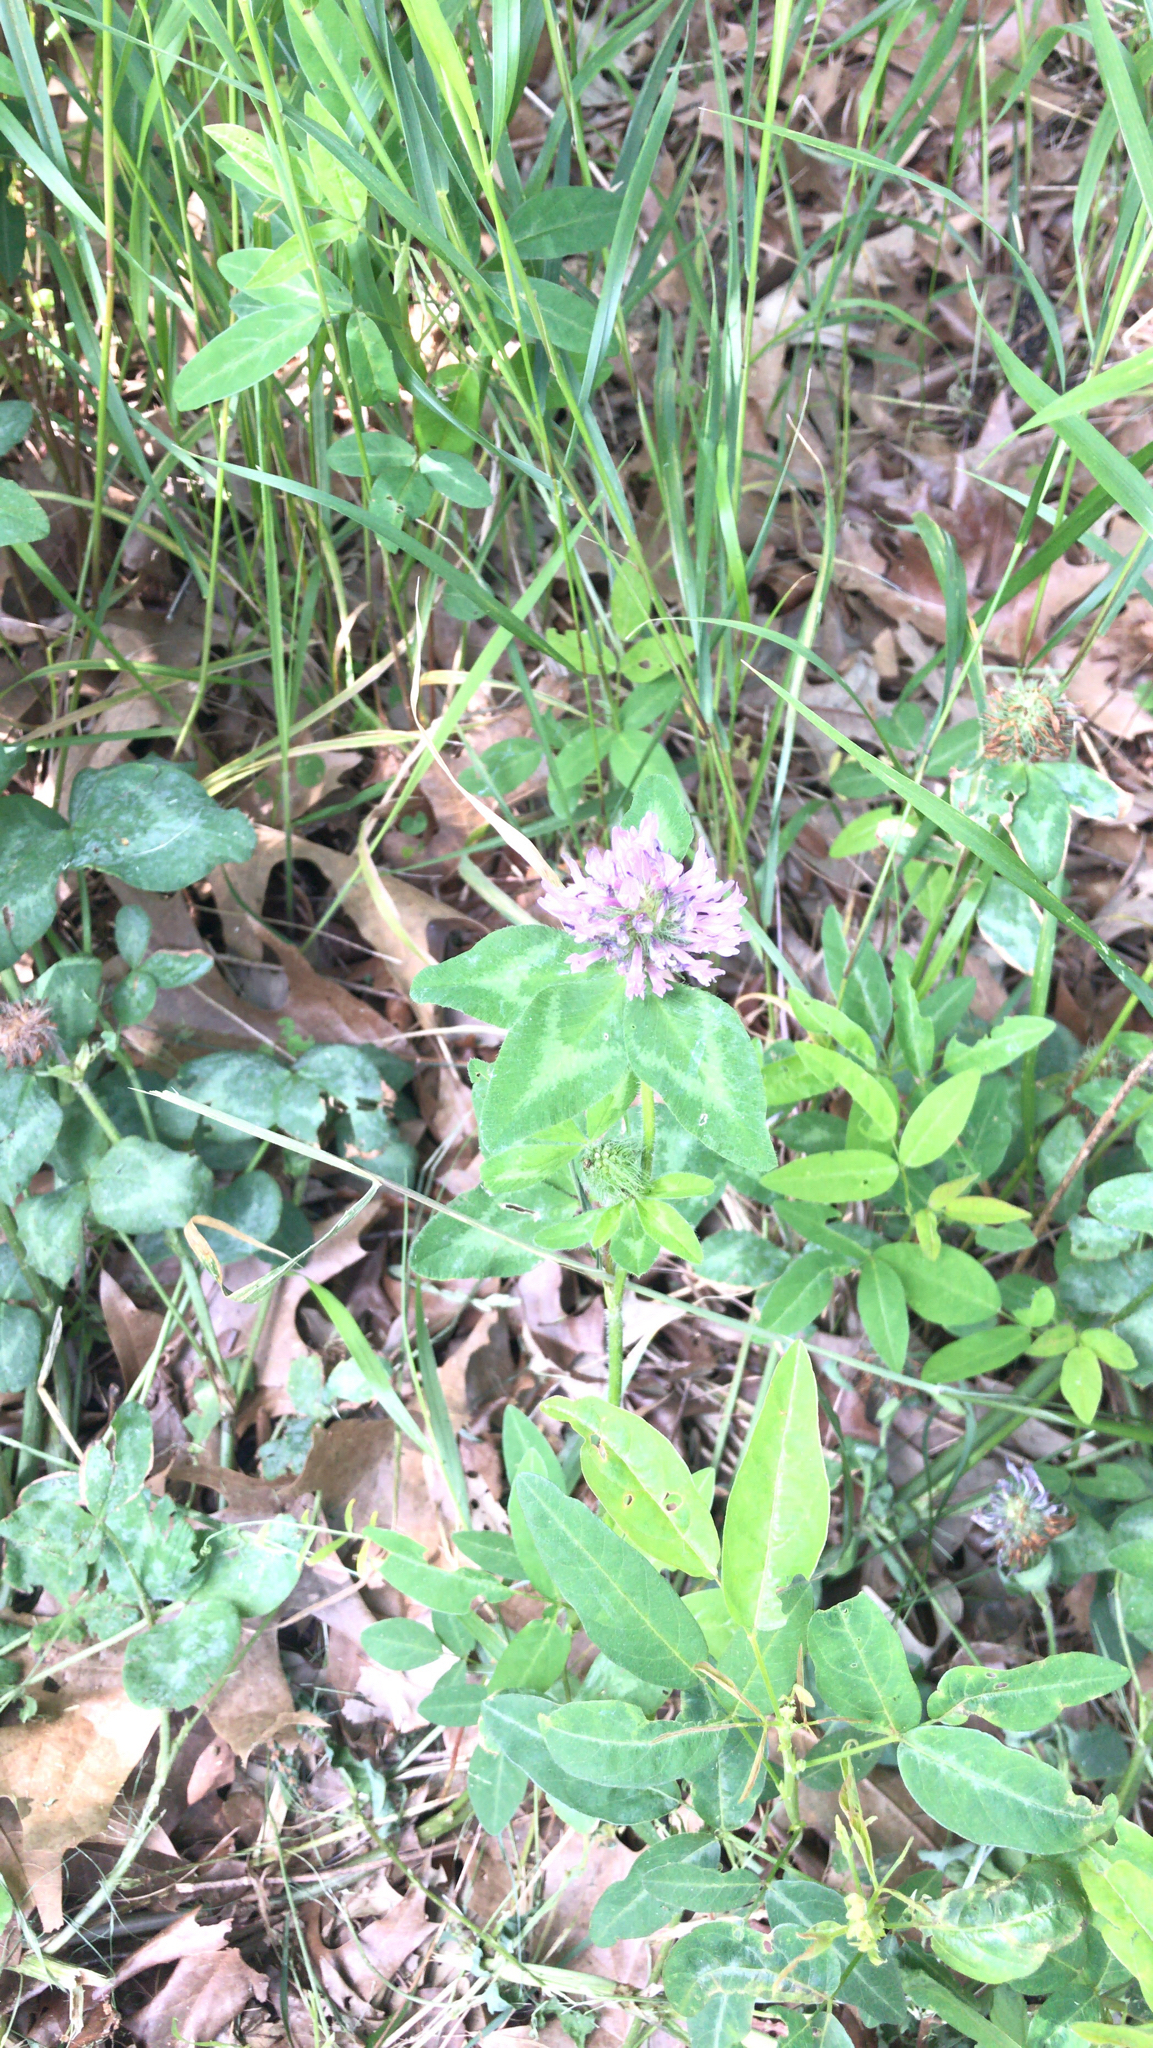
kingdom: Plantae
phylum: Tracheophyta
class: Magnoliopsida
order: Fabales
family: Fabaceae
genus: Trifolium
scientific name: Trifolium pratense
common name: Red clover
